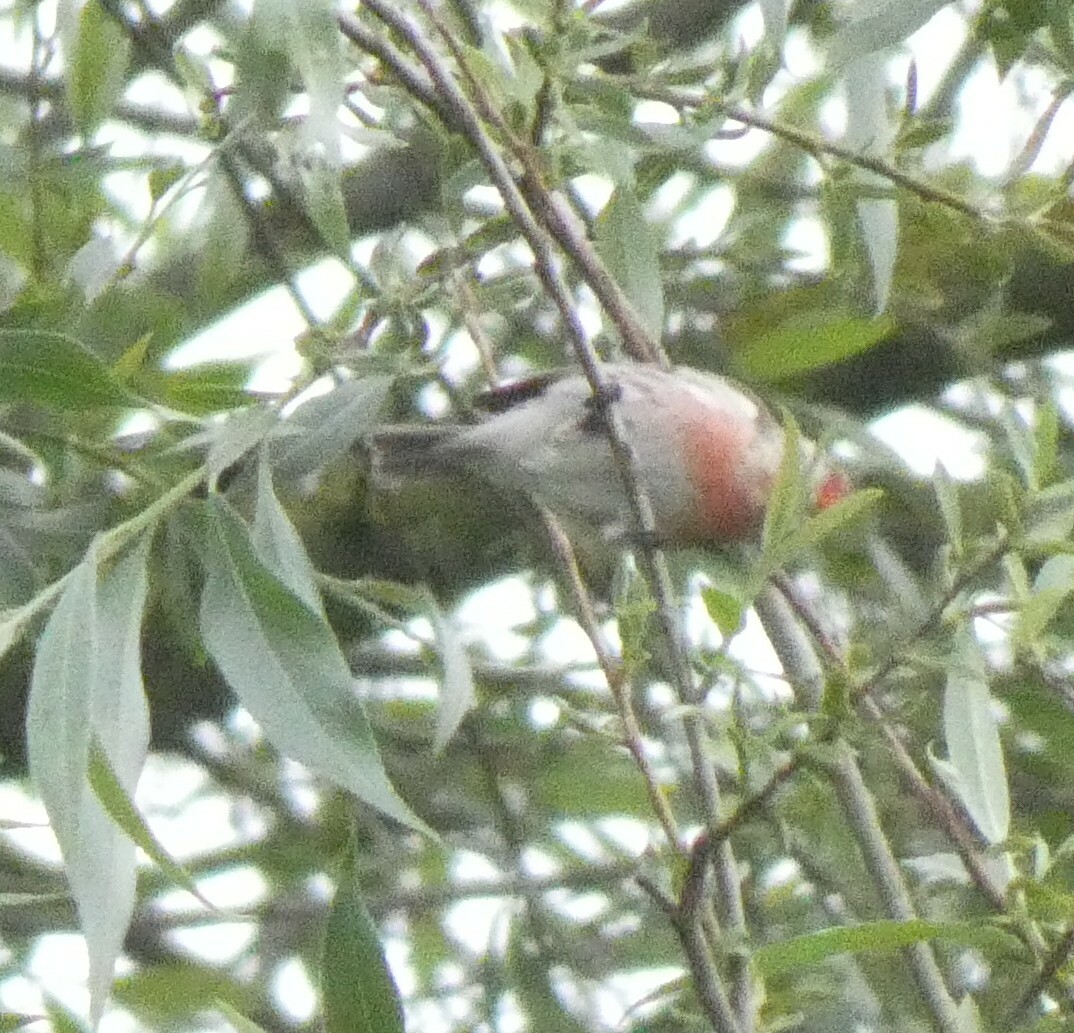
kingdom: Animalia
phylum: Chordata
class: Aves
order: Passeriformes
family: Fringillidae
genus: Acanthis
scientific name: Acanthis flammea
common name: Common redpoll
